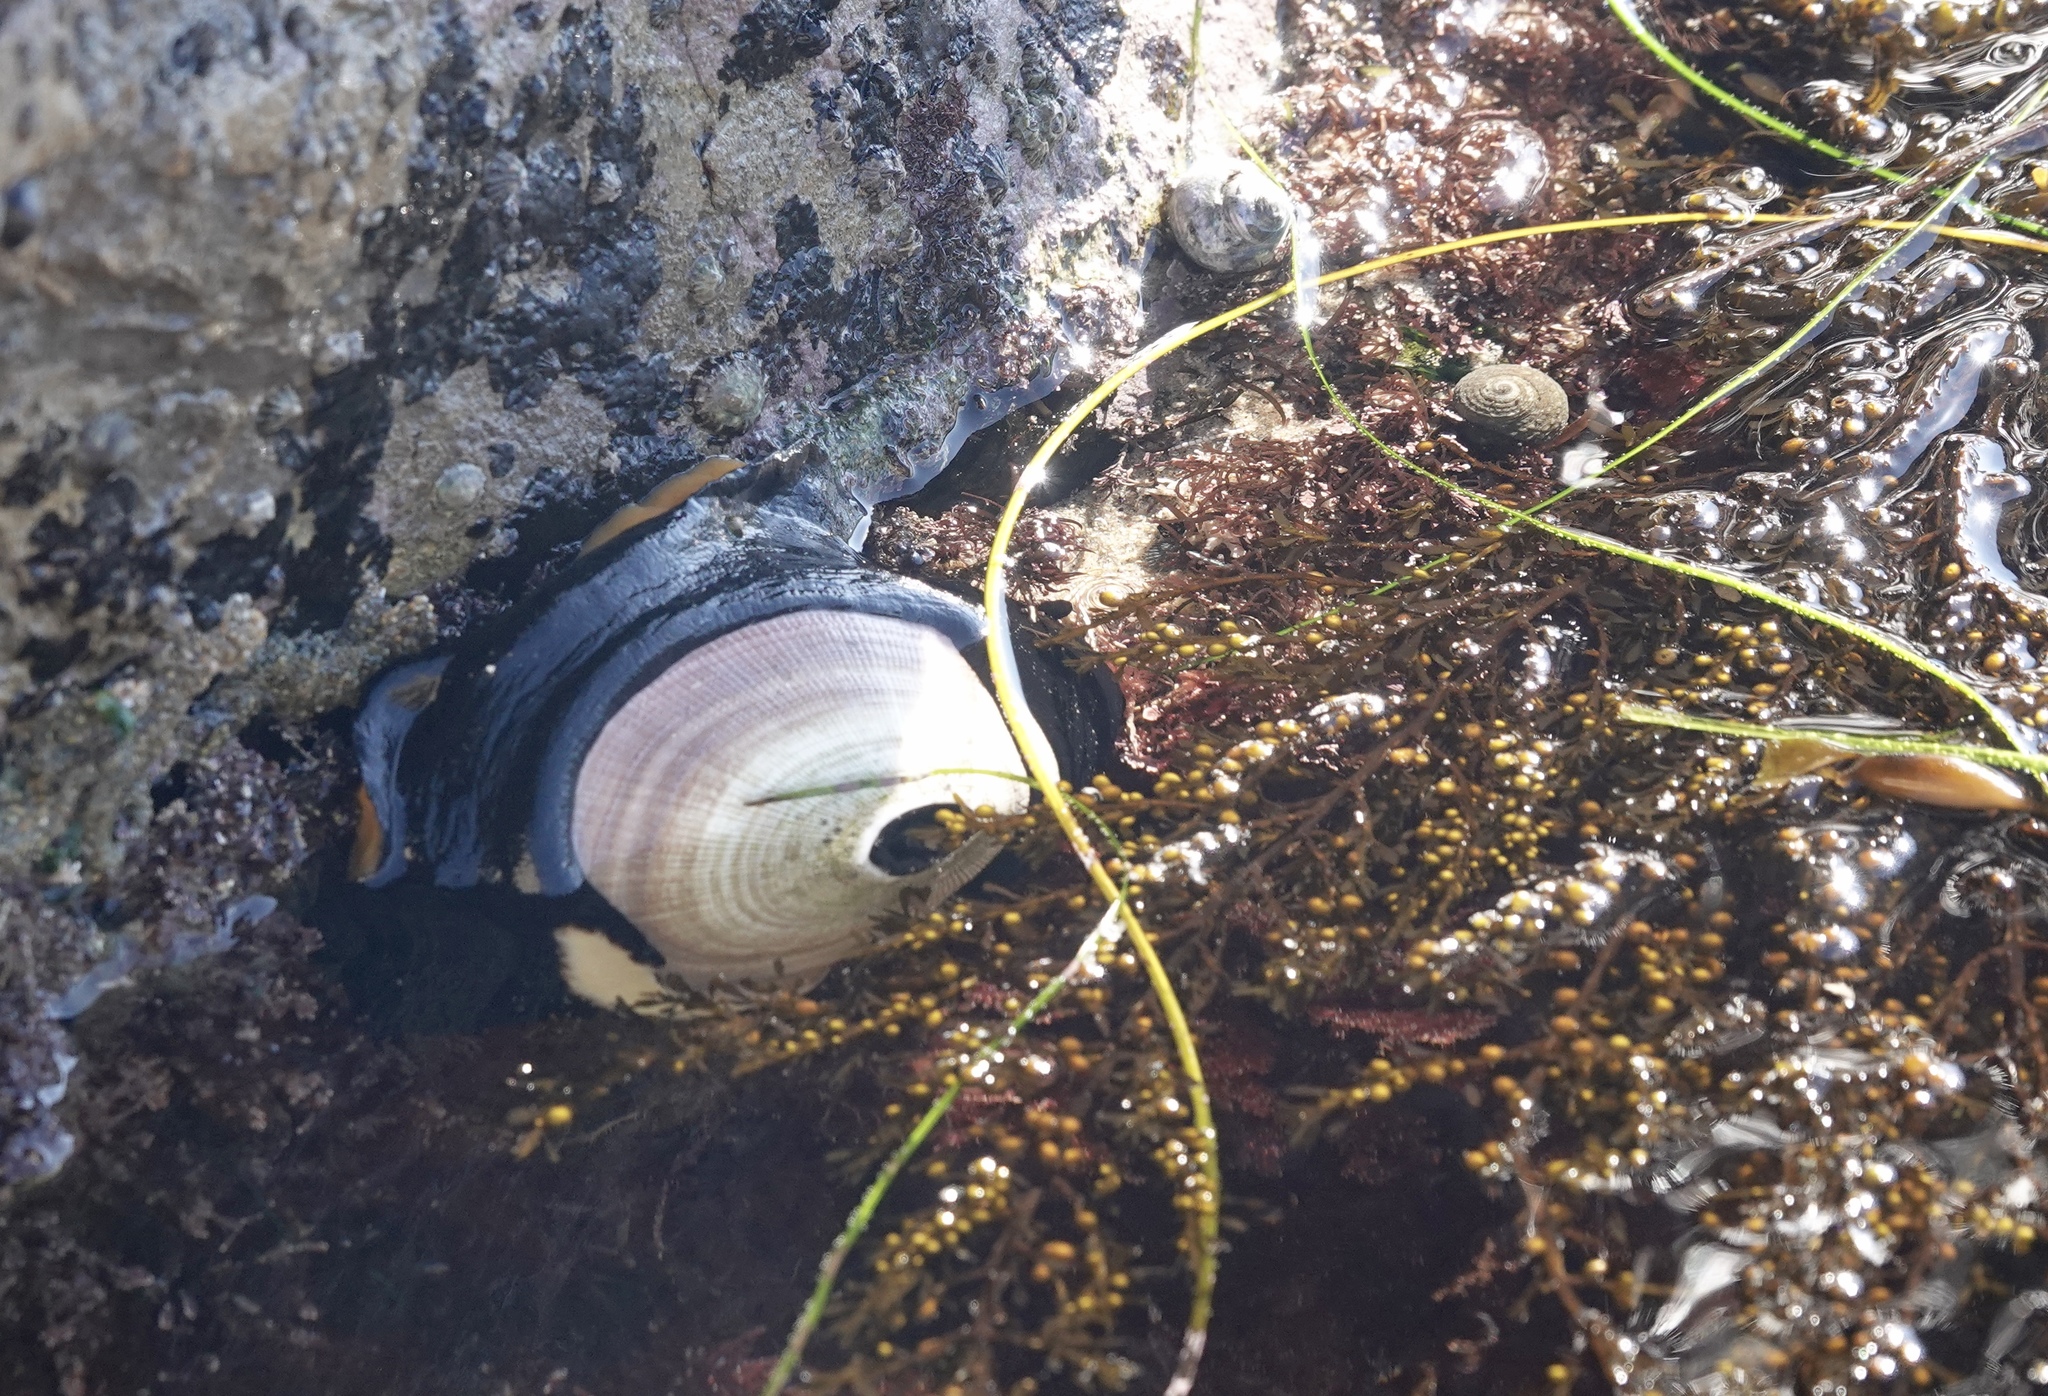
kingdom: Animalia
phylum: Mollusca
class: Gastropoda
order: Lepetellida
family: Fissurellidae
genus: Megathura
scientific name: Megathura crenulata
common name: Giant keyhole limpet
